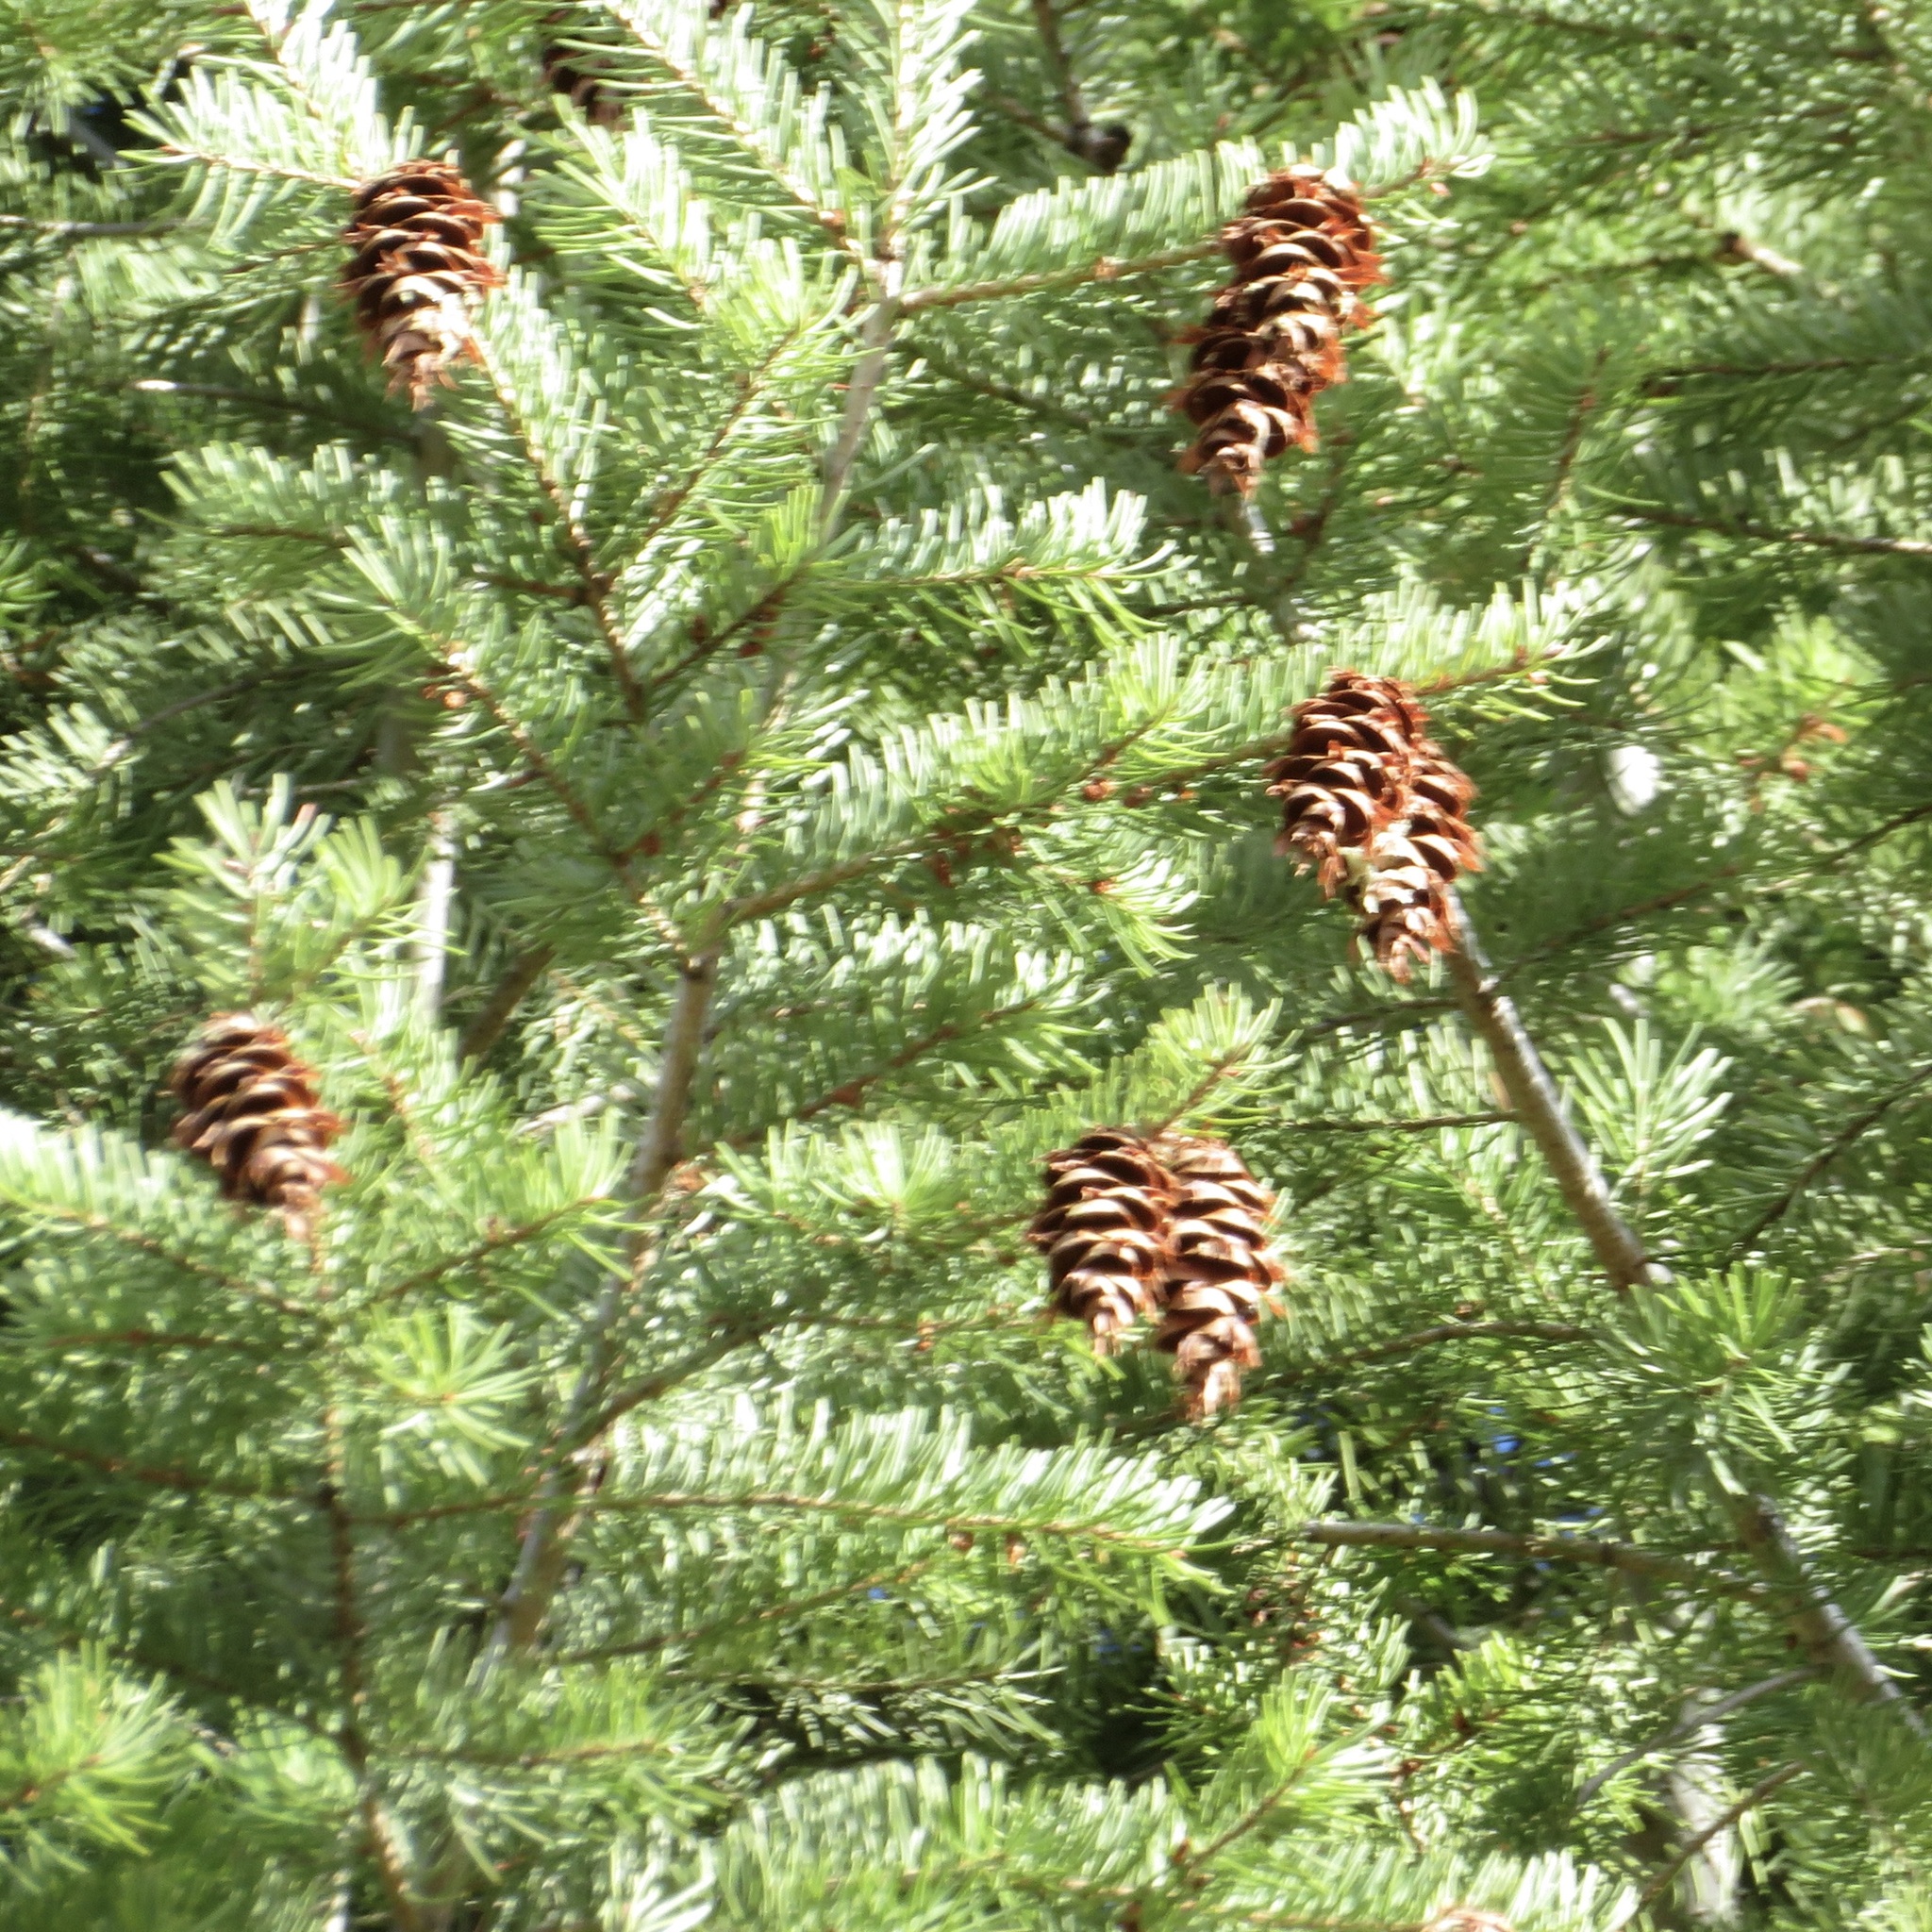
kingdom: Plantae
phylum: Tracheophyta
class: Pinopsida
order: Pinales
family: Pinaceae
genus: Pseudotsuga
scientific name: Pseudotsuga menziesii
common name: Douglas fir
